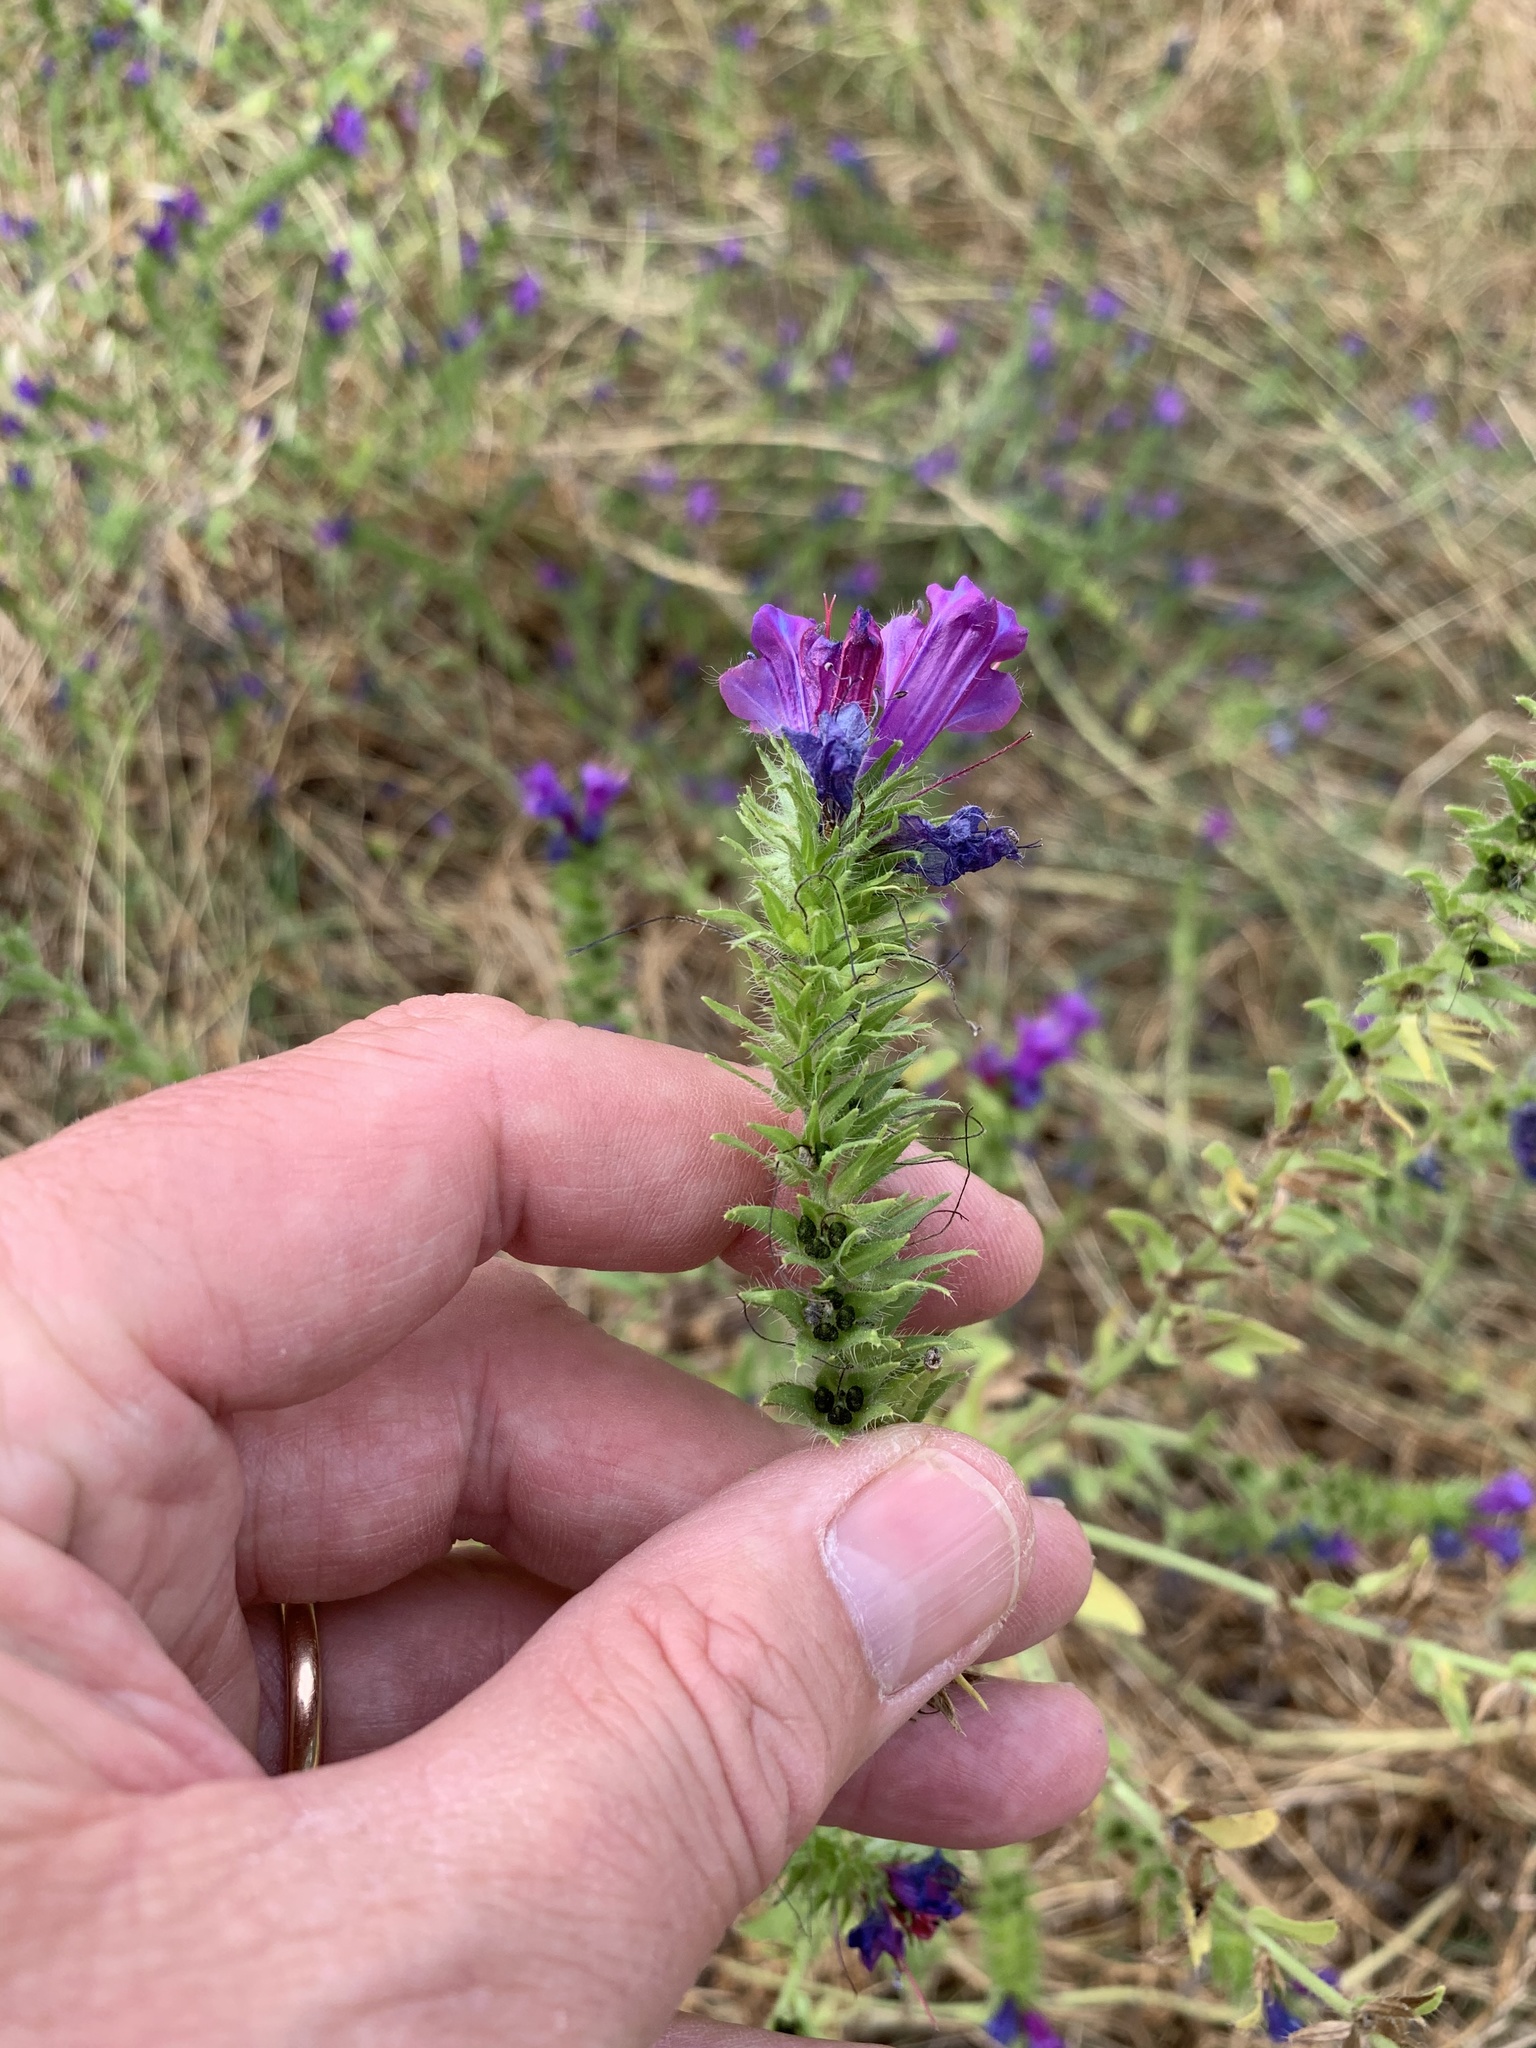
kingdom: Plantae
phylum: Tracheophyta
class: Magnoliopsida
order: Boraginales
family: Boraginaceae
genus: Echium
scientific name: Echium plantagineum
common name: Purple viper's-bugloss
